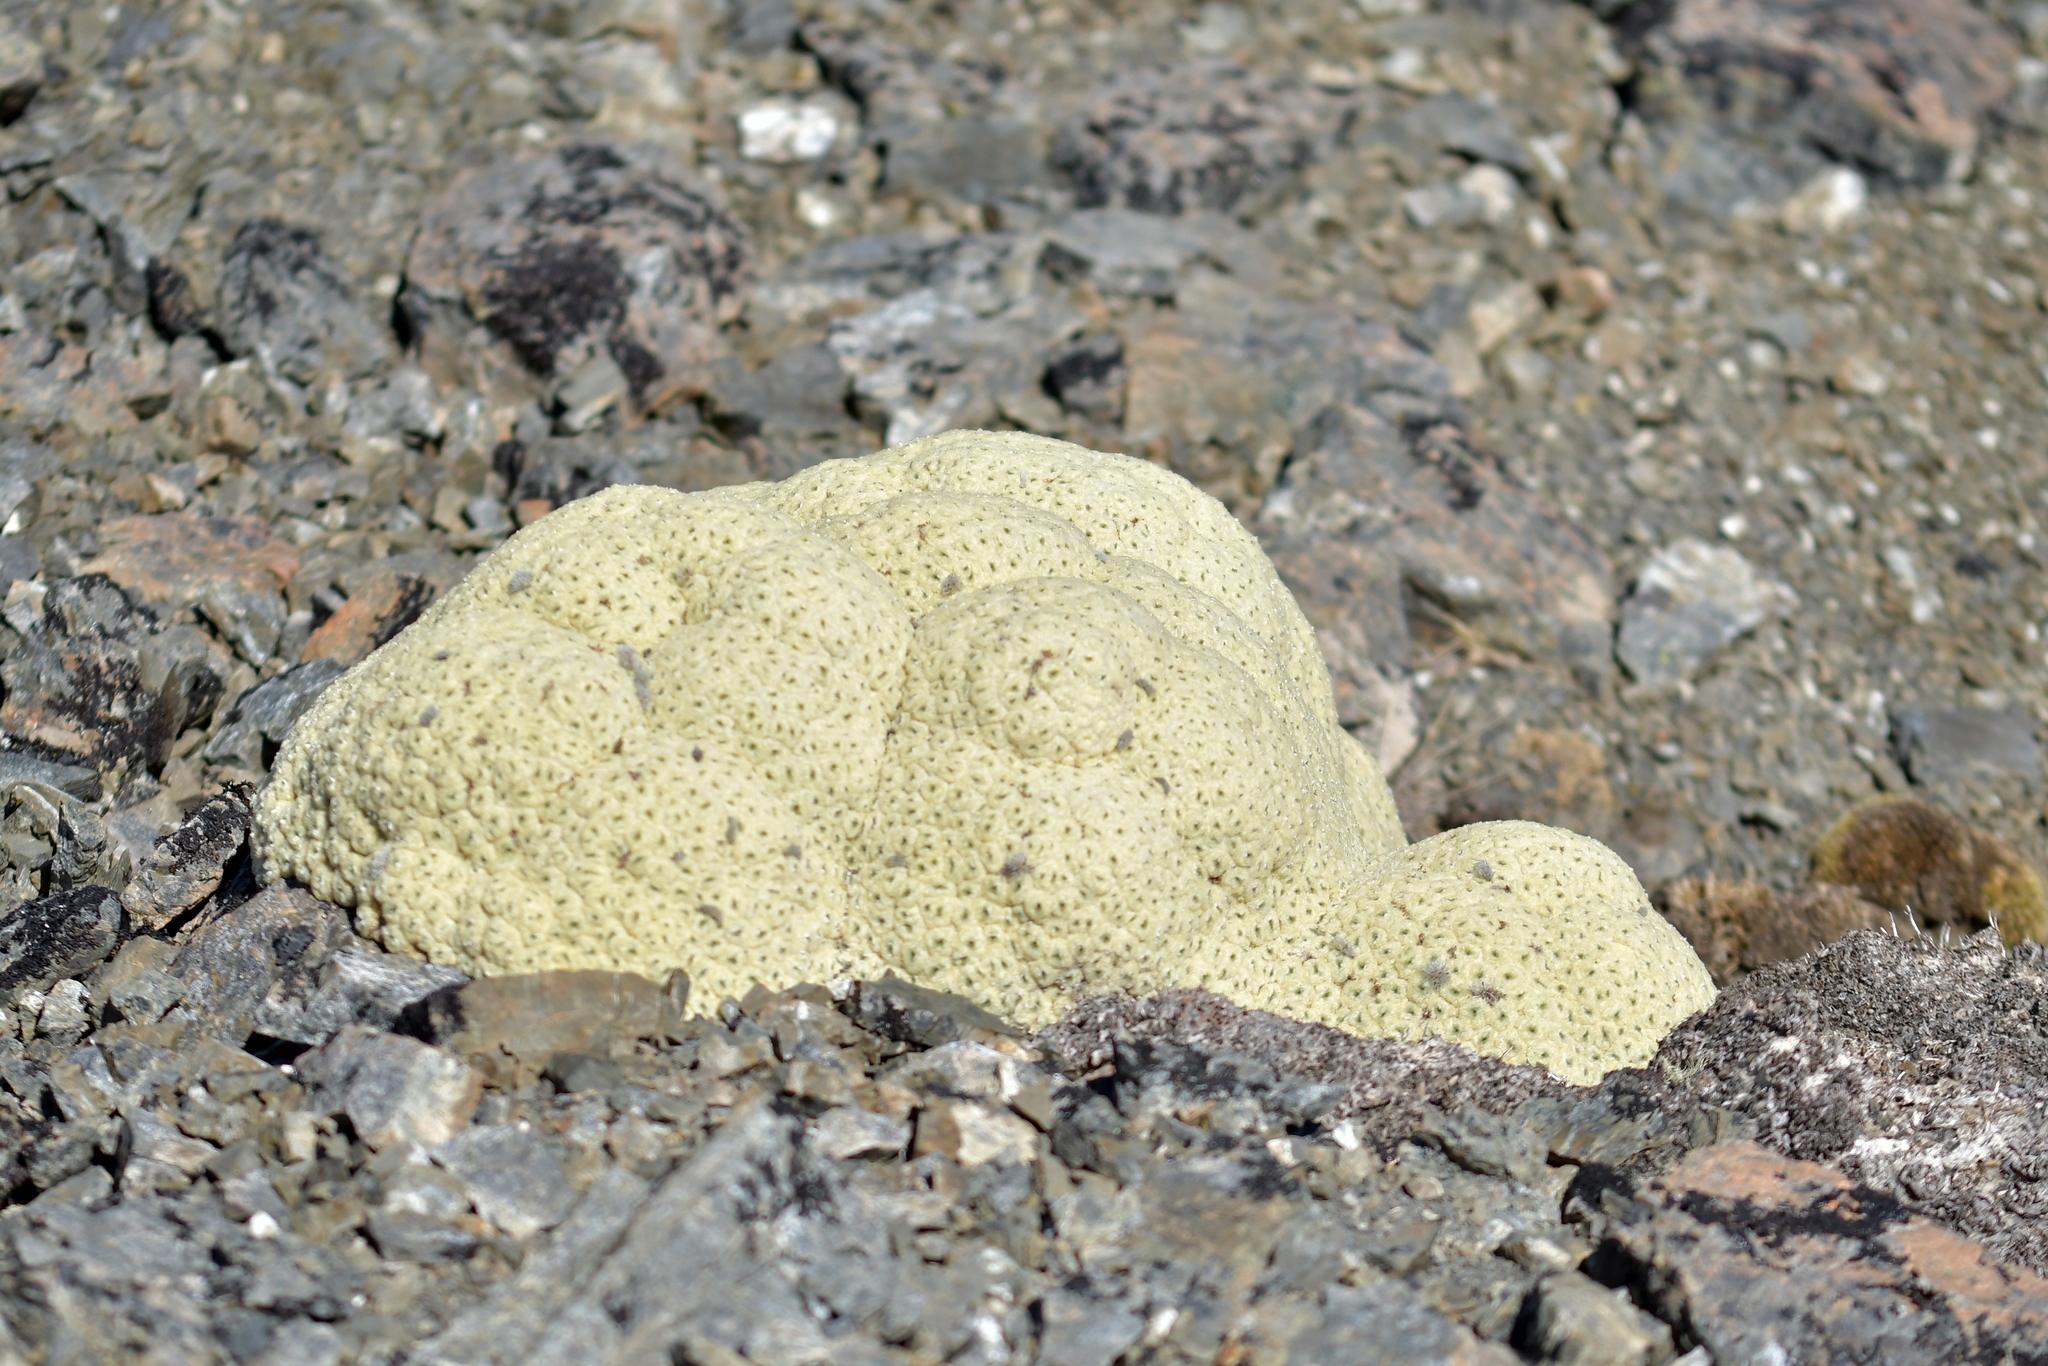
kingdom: Plantae
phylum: Tracheophyta
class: Magnoliopsida
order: Asterales
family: Asteraceae
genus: Haastia
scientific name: Haastia pulvinaris
